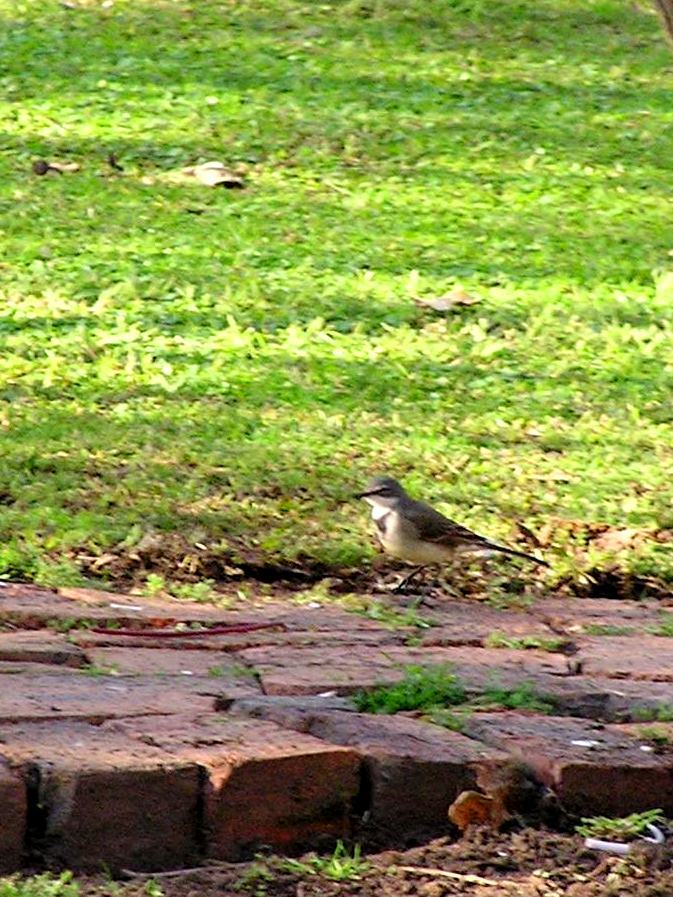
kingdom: Animalia
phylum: Chordata
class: Aves
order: Passeriformes
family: Motacillidae
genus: Motacilla
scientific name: Motacilla capensis
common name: Cape wagtail
